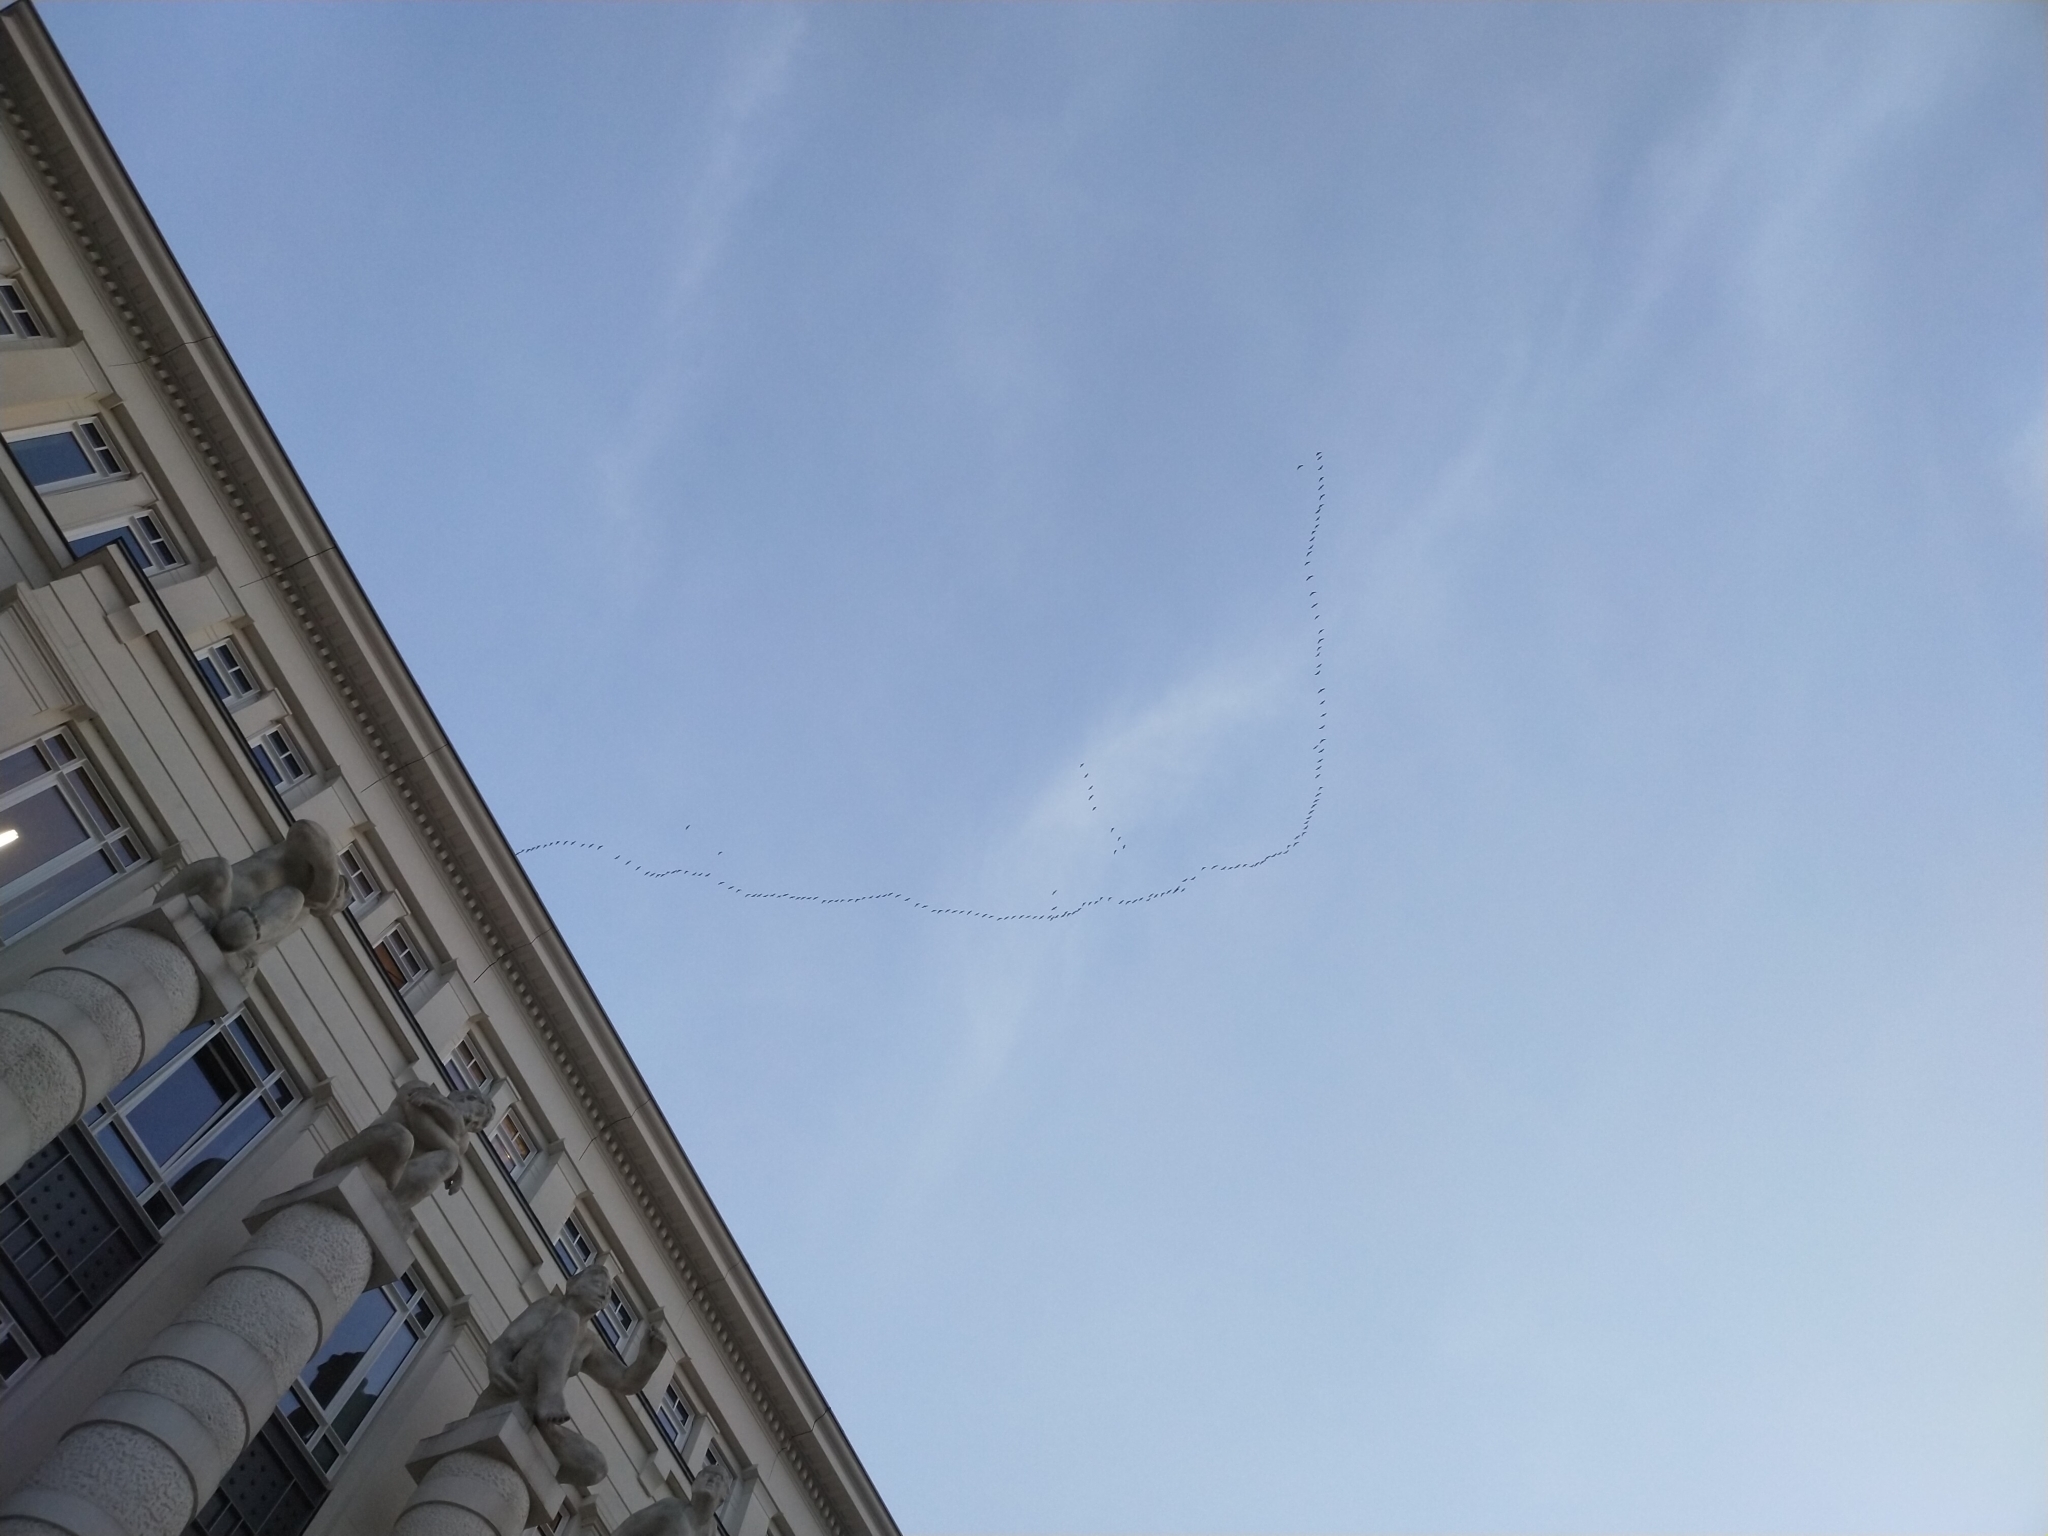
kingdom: Animalia
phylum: Chordata
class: Aves
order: Gruiformes
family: Gruidae
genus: Grus
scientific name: Grus grus
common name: Common crane
